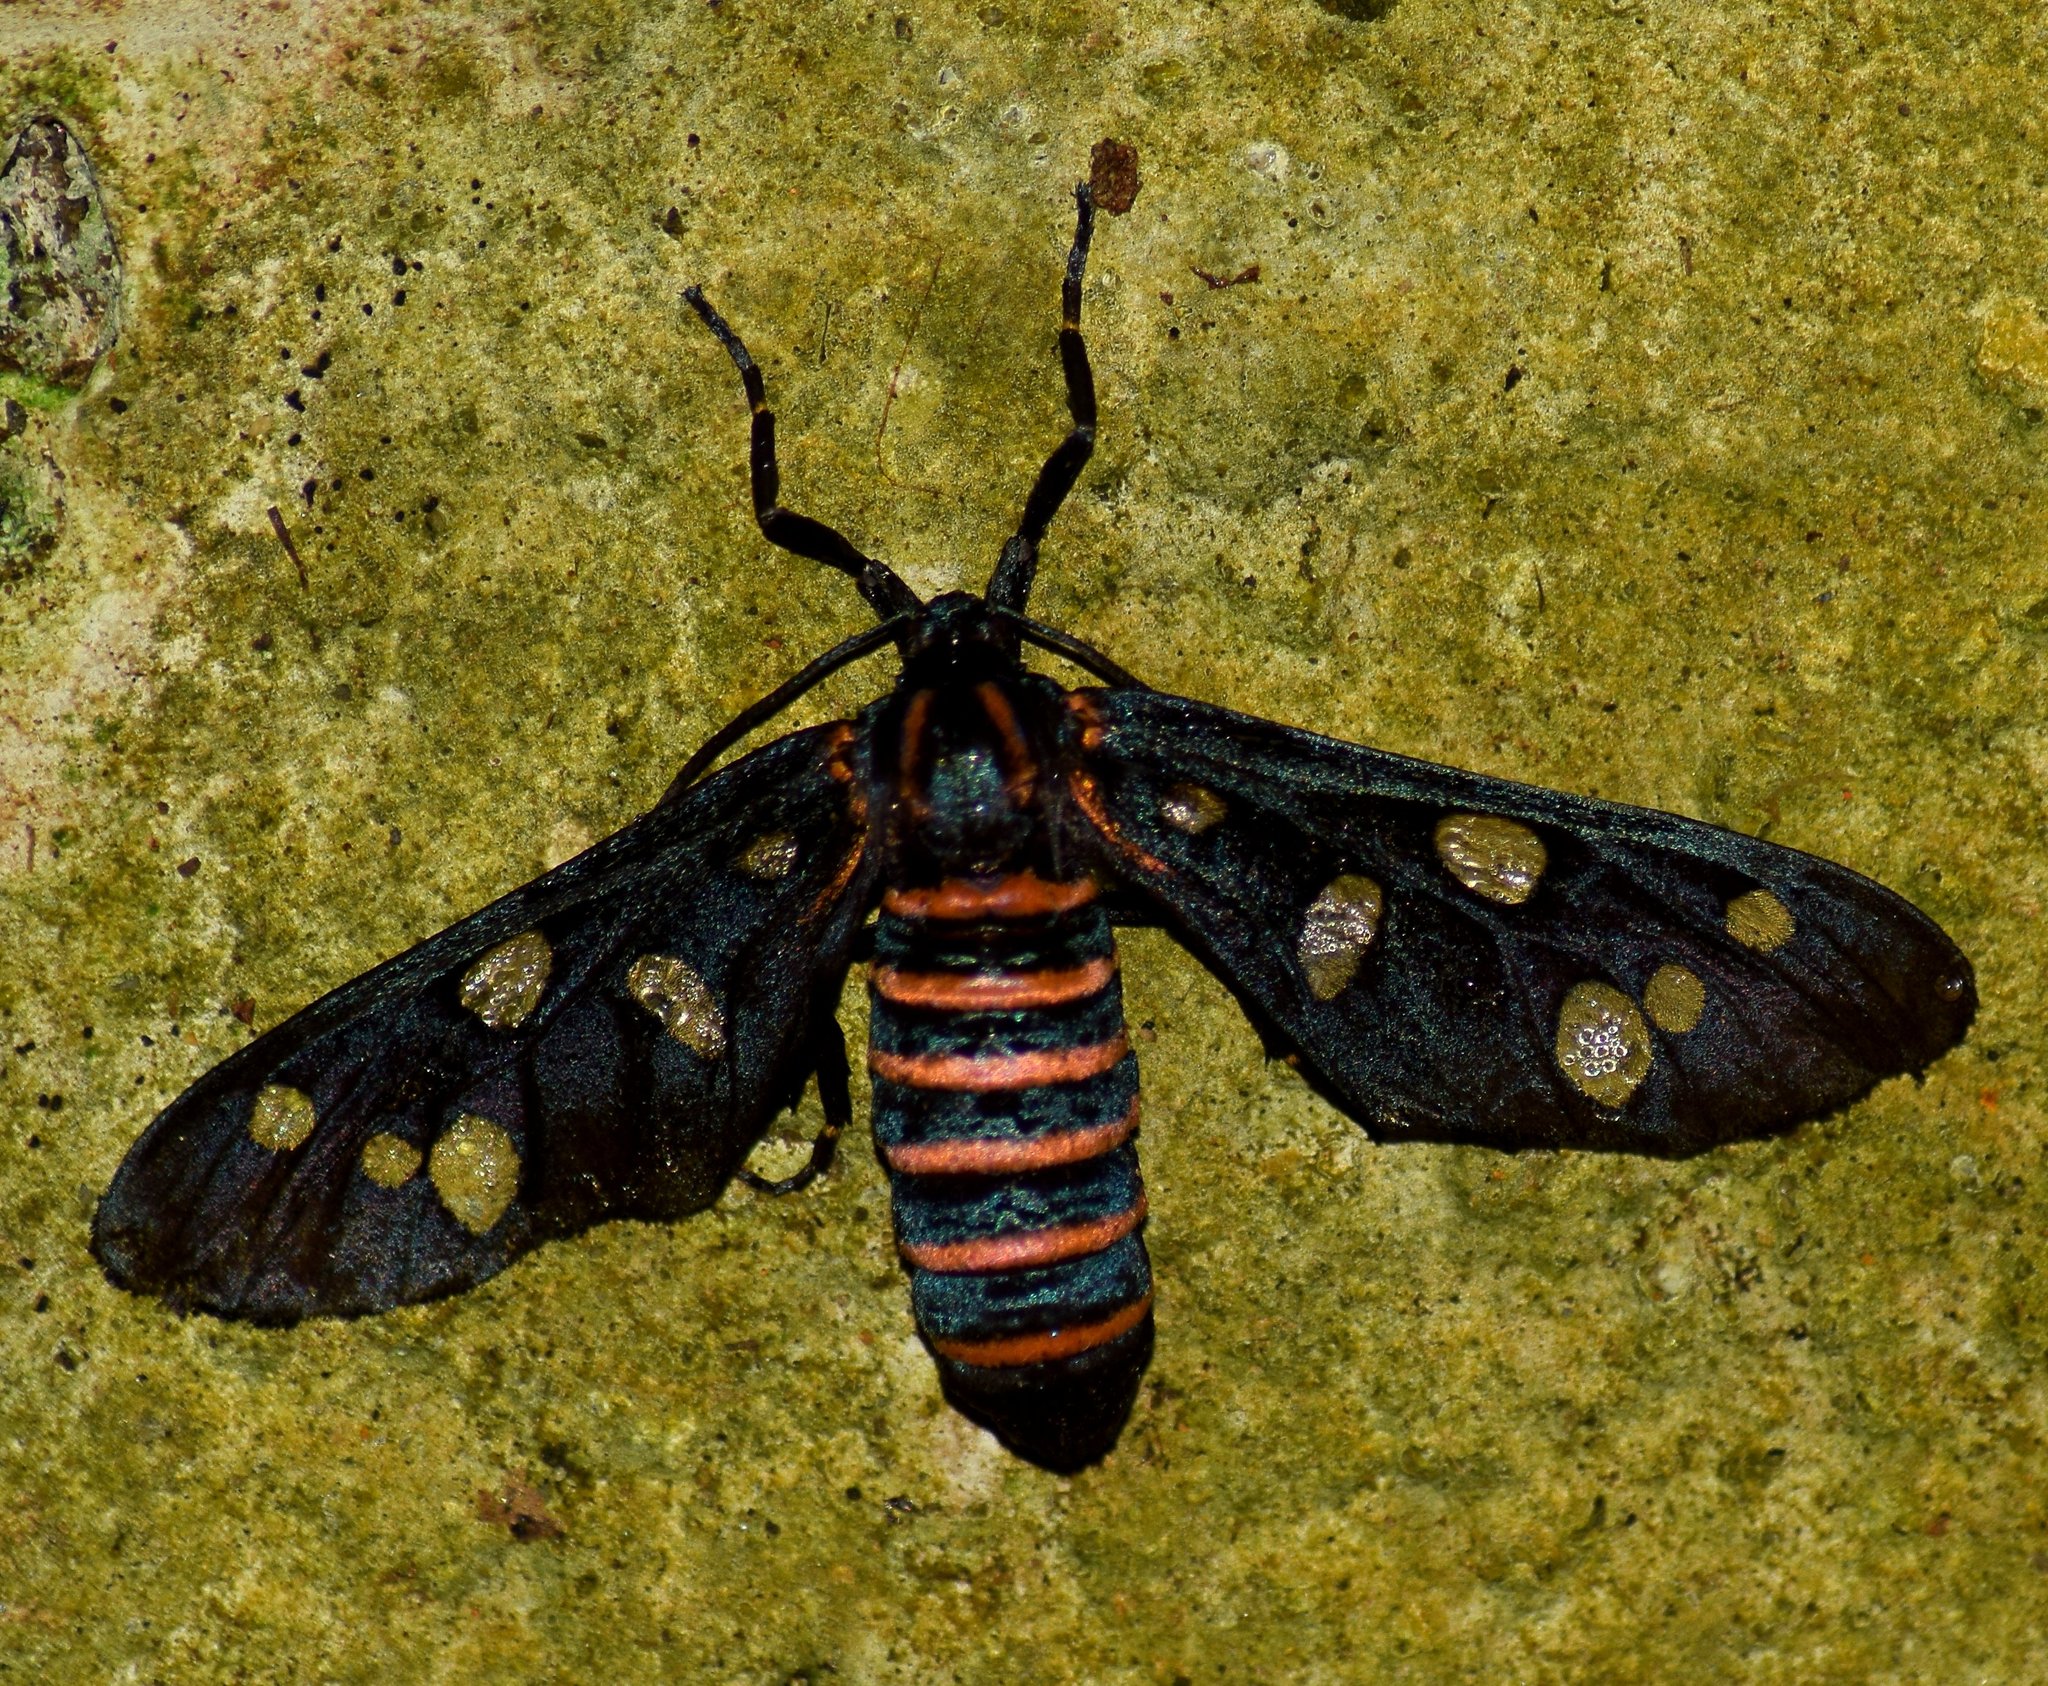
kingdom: Animalia
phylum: Arthropoda
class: Insecta
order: Lepidoptera
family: Erebidae
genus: Amata
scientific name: Amata passalis
